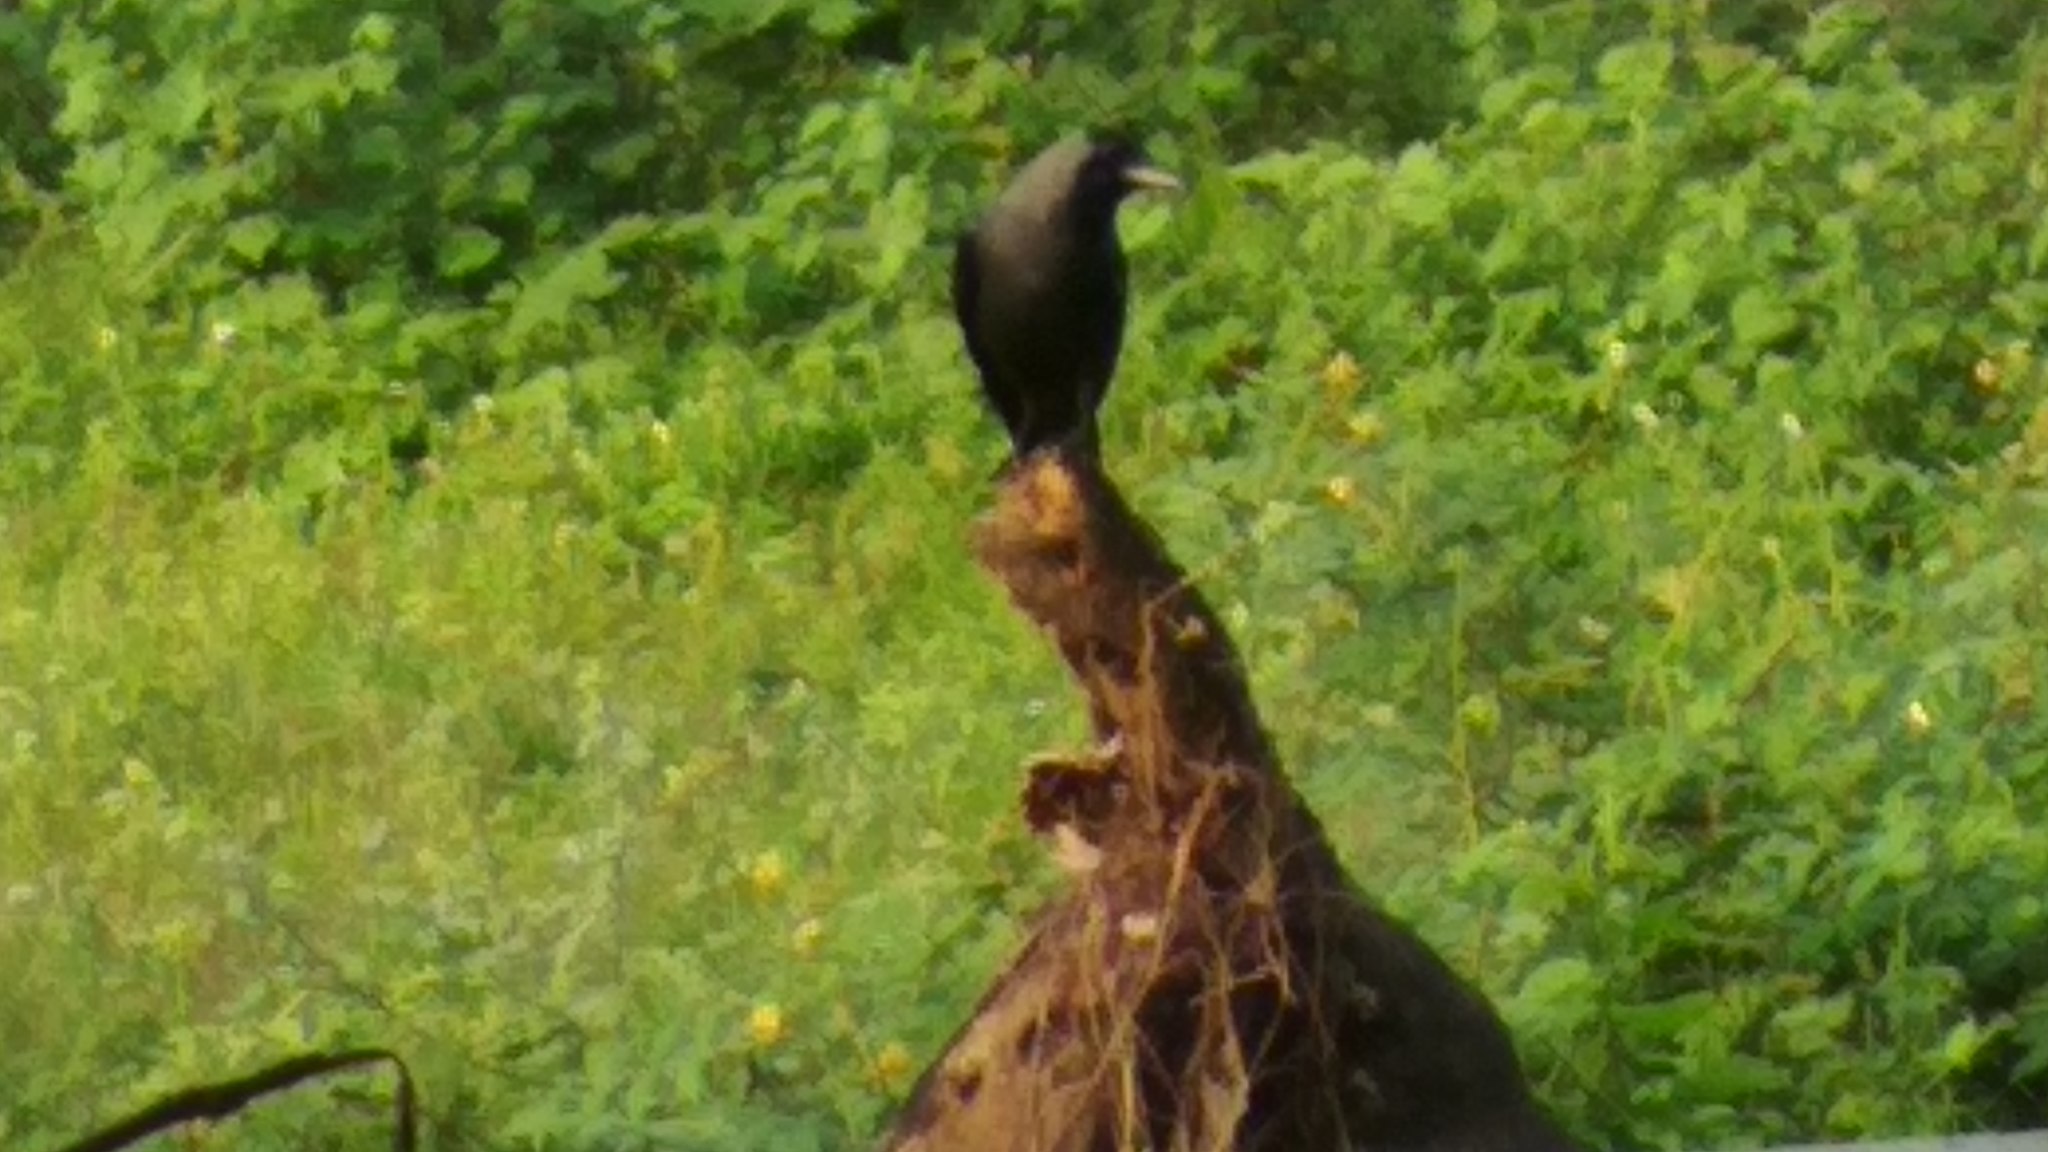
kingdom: Animalia
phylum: Chordata
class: Aves
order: Passeriformes
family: Corvidae
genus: Corvus
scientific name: Corvus splendens
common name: House crow
